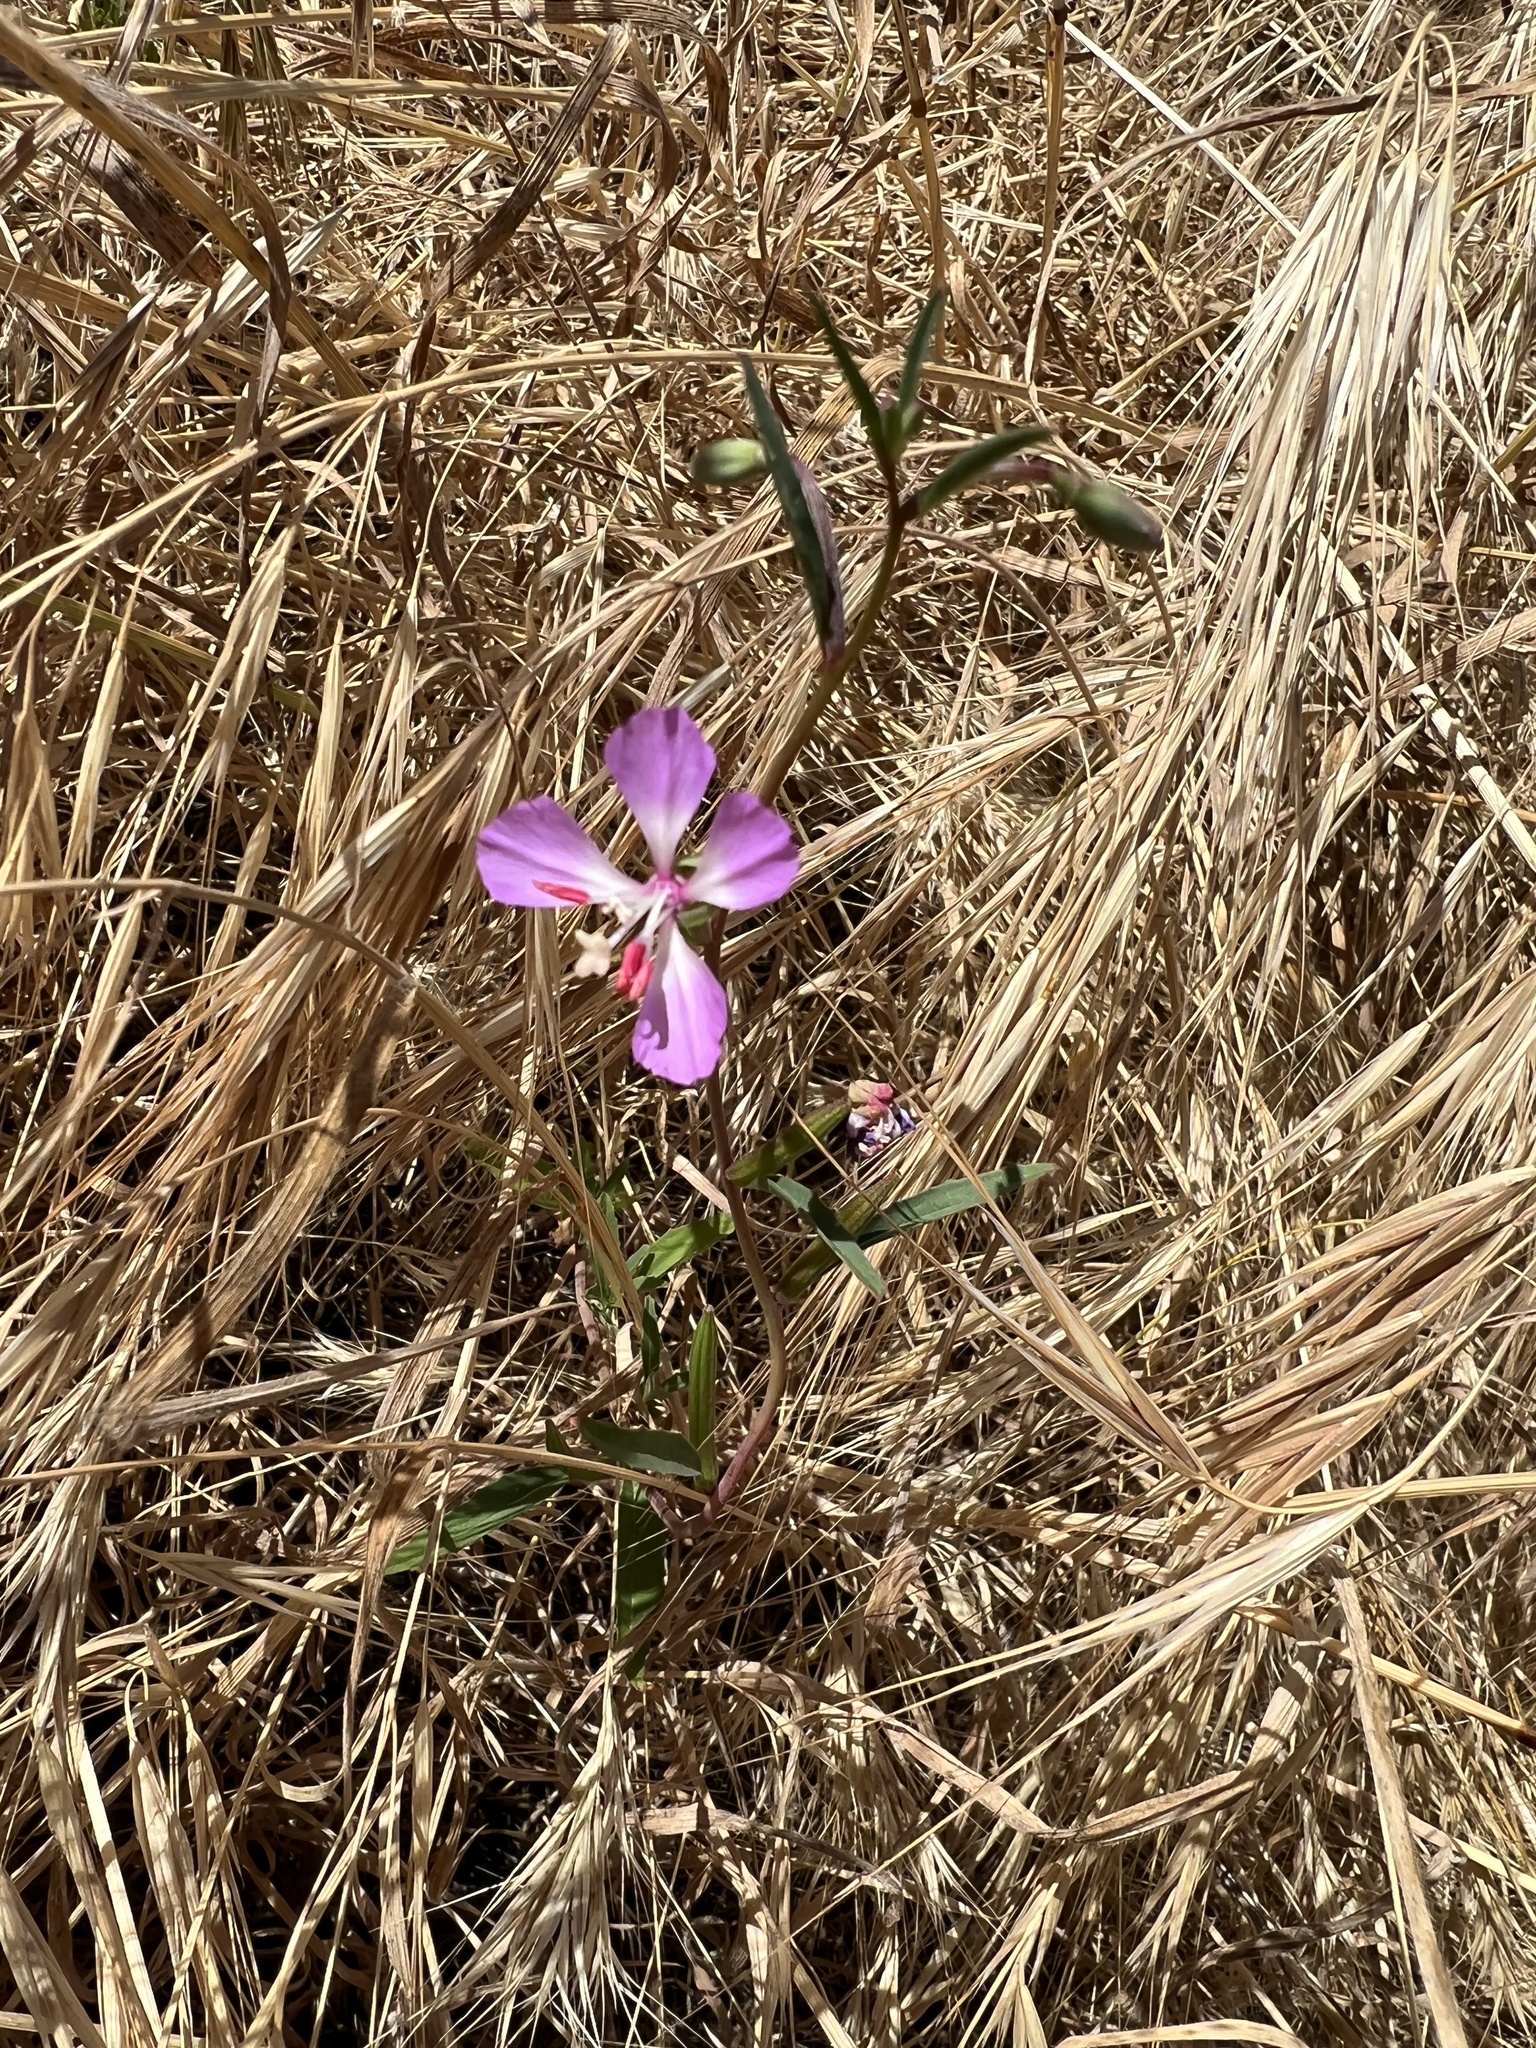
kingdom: Plantae
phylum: Tracheophyta
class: Magnoliopsida
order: Myrtales
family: Onagraceae
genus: Clarkia
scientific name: Clarkia delicata
